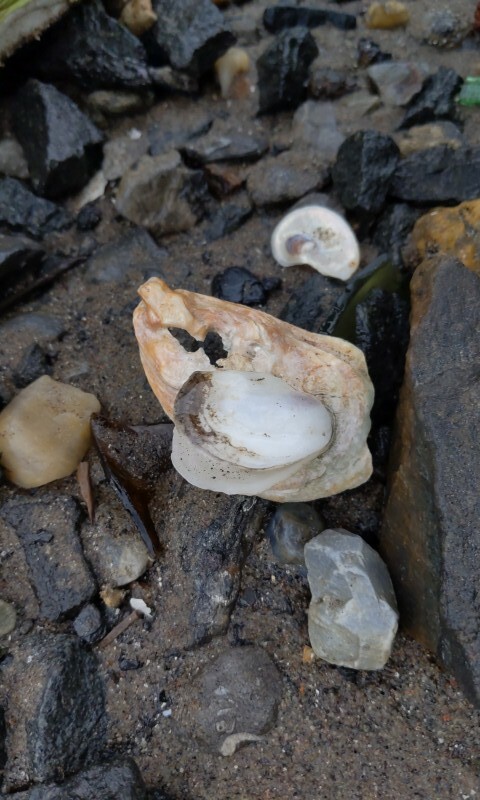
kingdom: Animalia
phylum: Mollusca
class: Bivalvia
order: Ostreida
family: Ostreidae
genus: Crassostrea
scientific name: Crassostrea virginica
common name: American oyster
